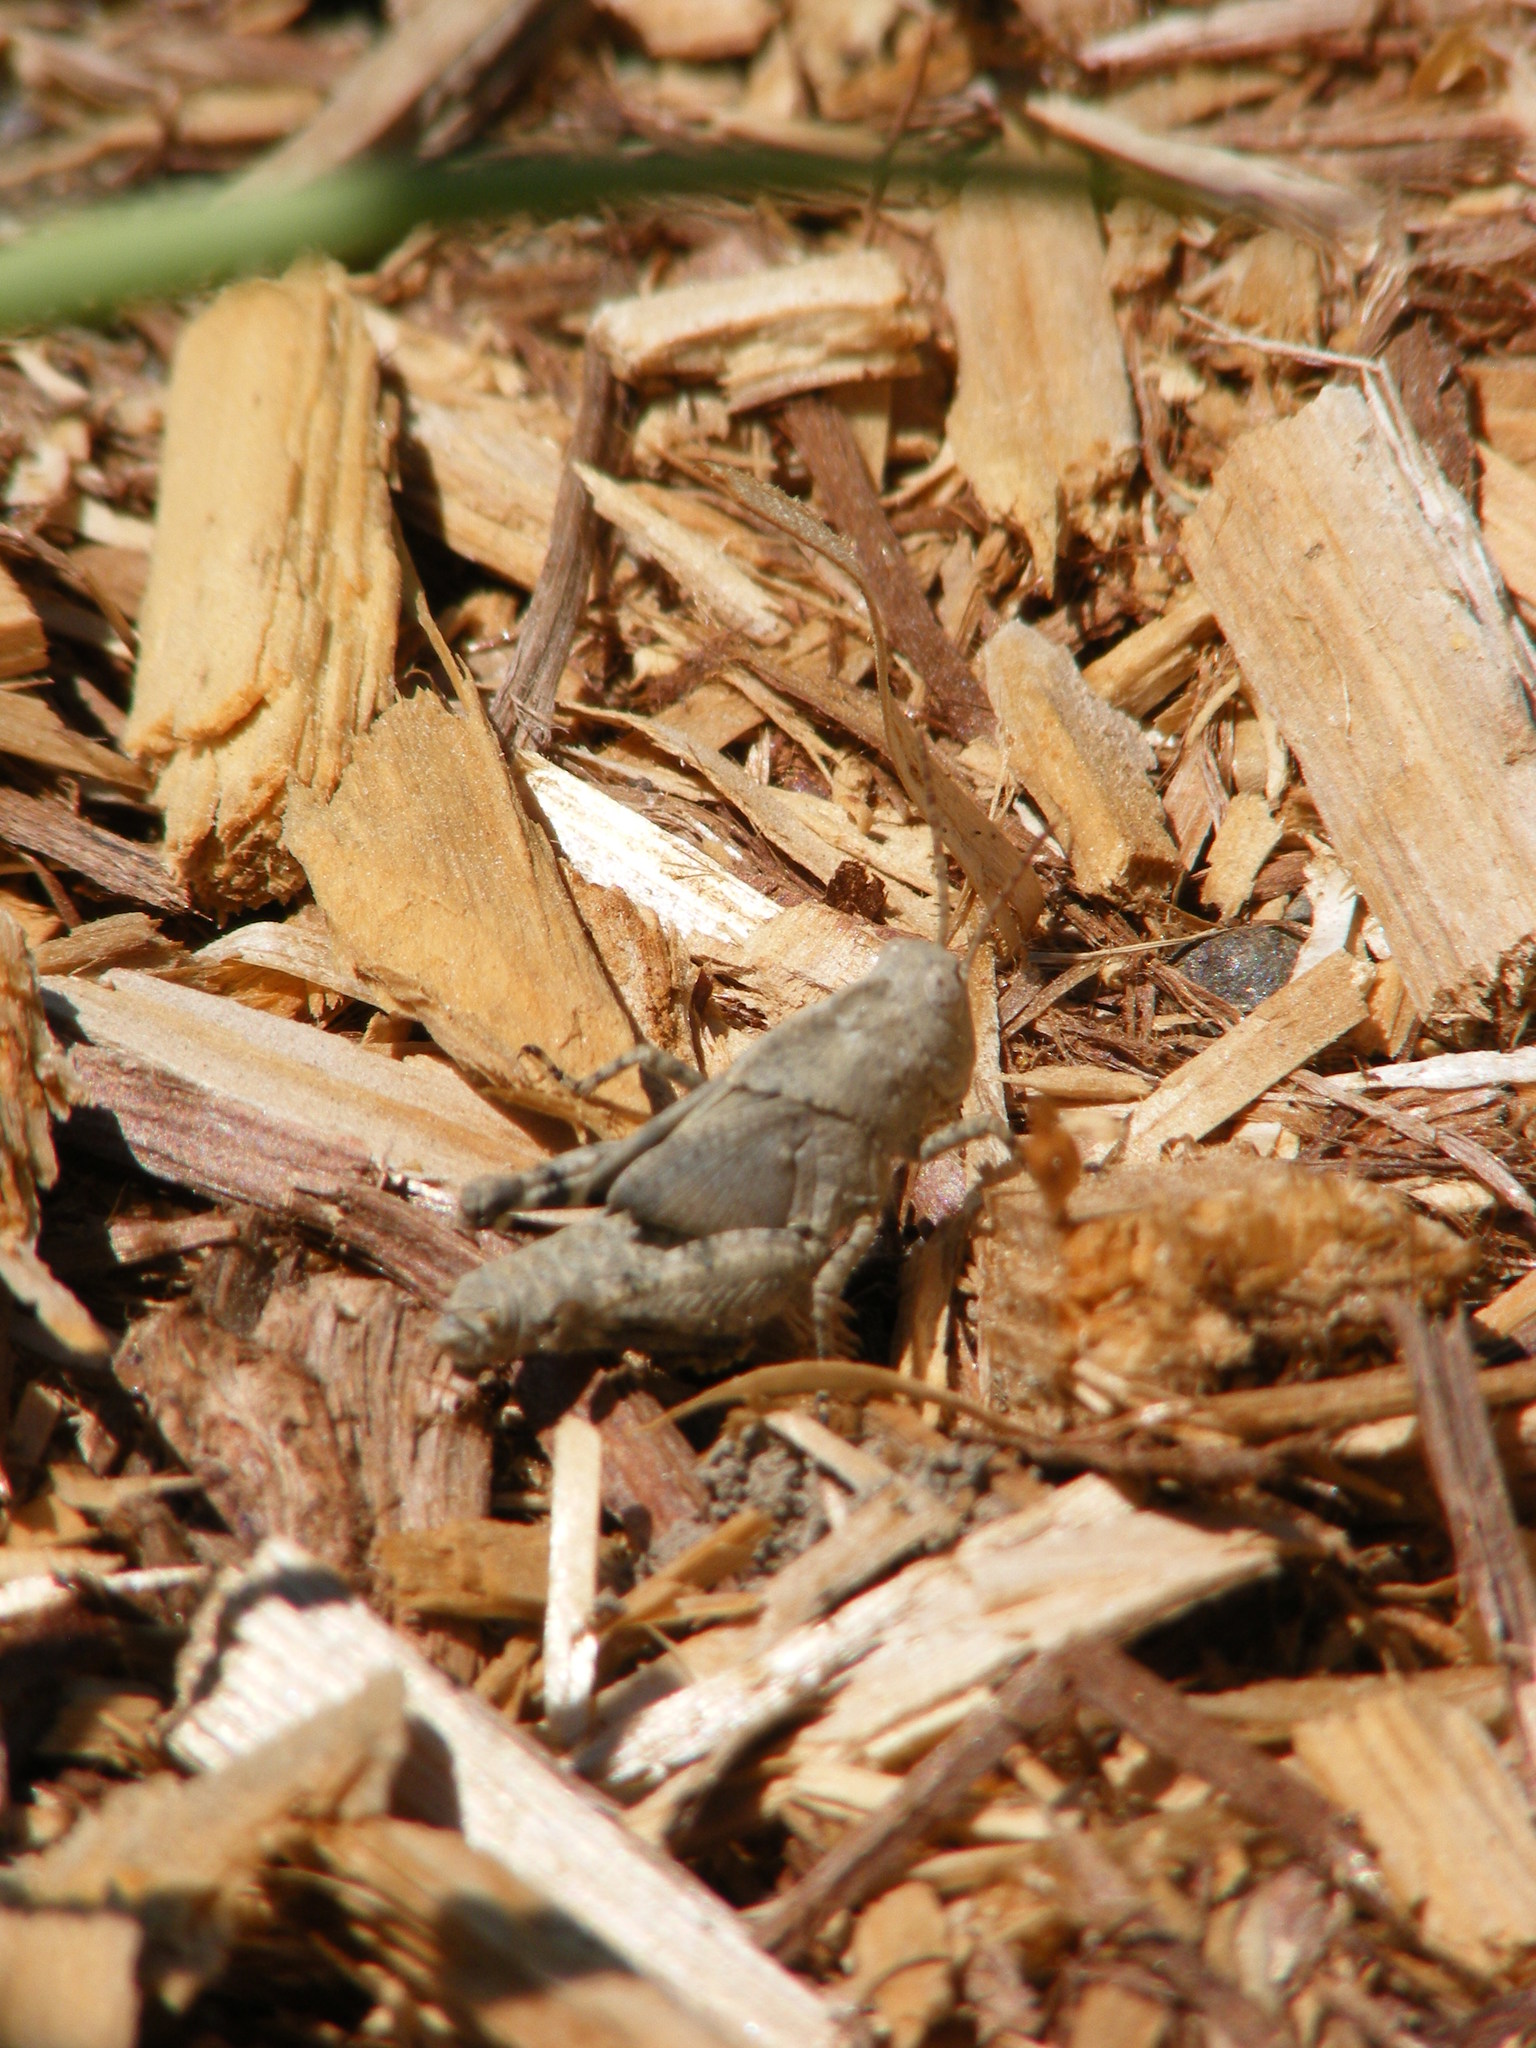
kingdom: Animalia
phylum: Arthropoda
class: Insecta
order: Orthoptera
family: Acrididae
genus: Dissosteira
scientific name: Dissosteira carolina
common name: Carolina grasshopper
